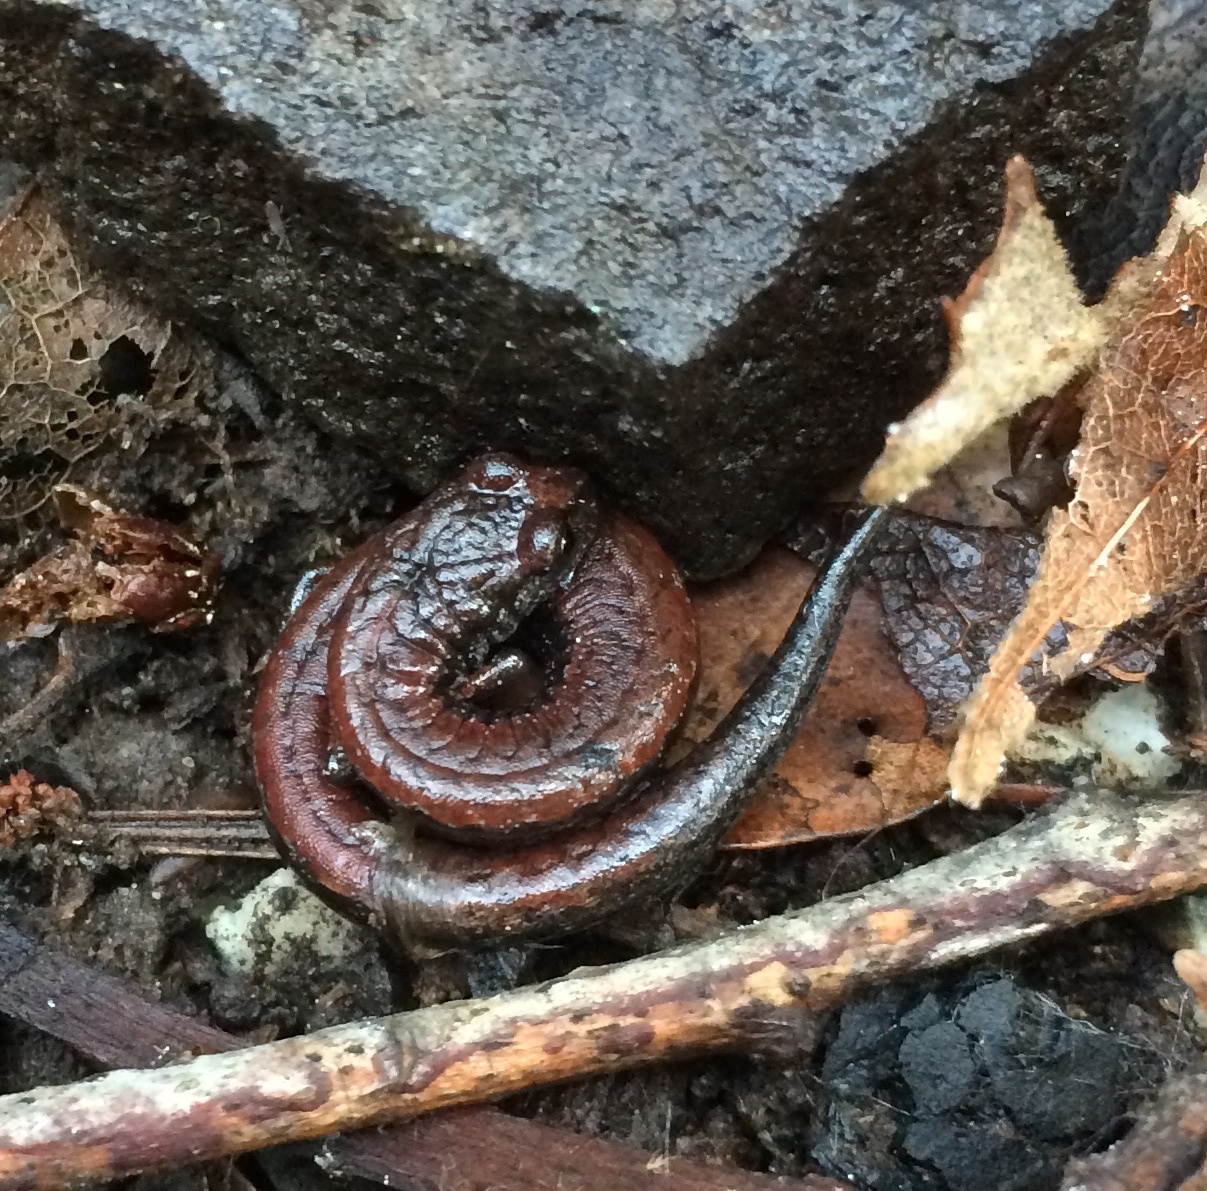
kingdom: Animalia
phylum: Chordata
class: Amphibia
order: Caudata
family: Plethodontidae
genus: Batrachoseps
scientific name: Batrachoseps attenuatus
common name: California slender salamander
